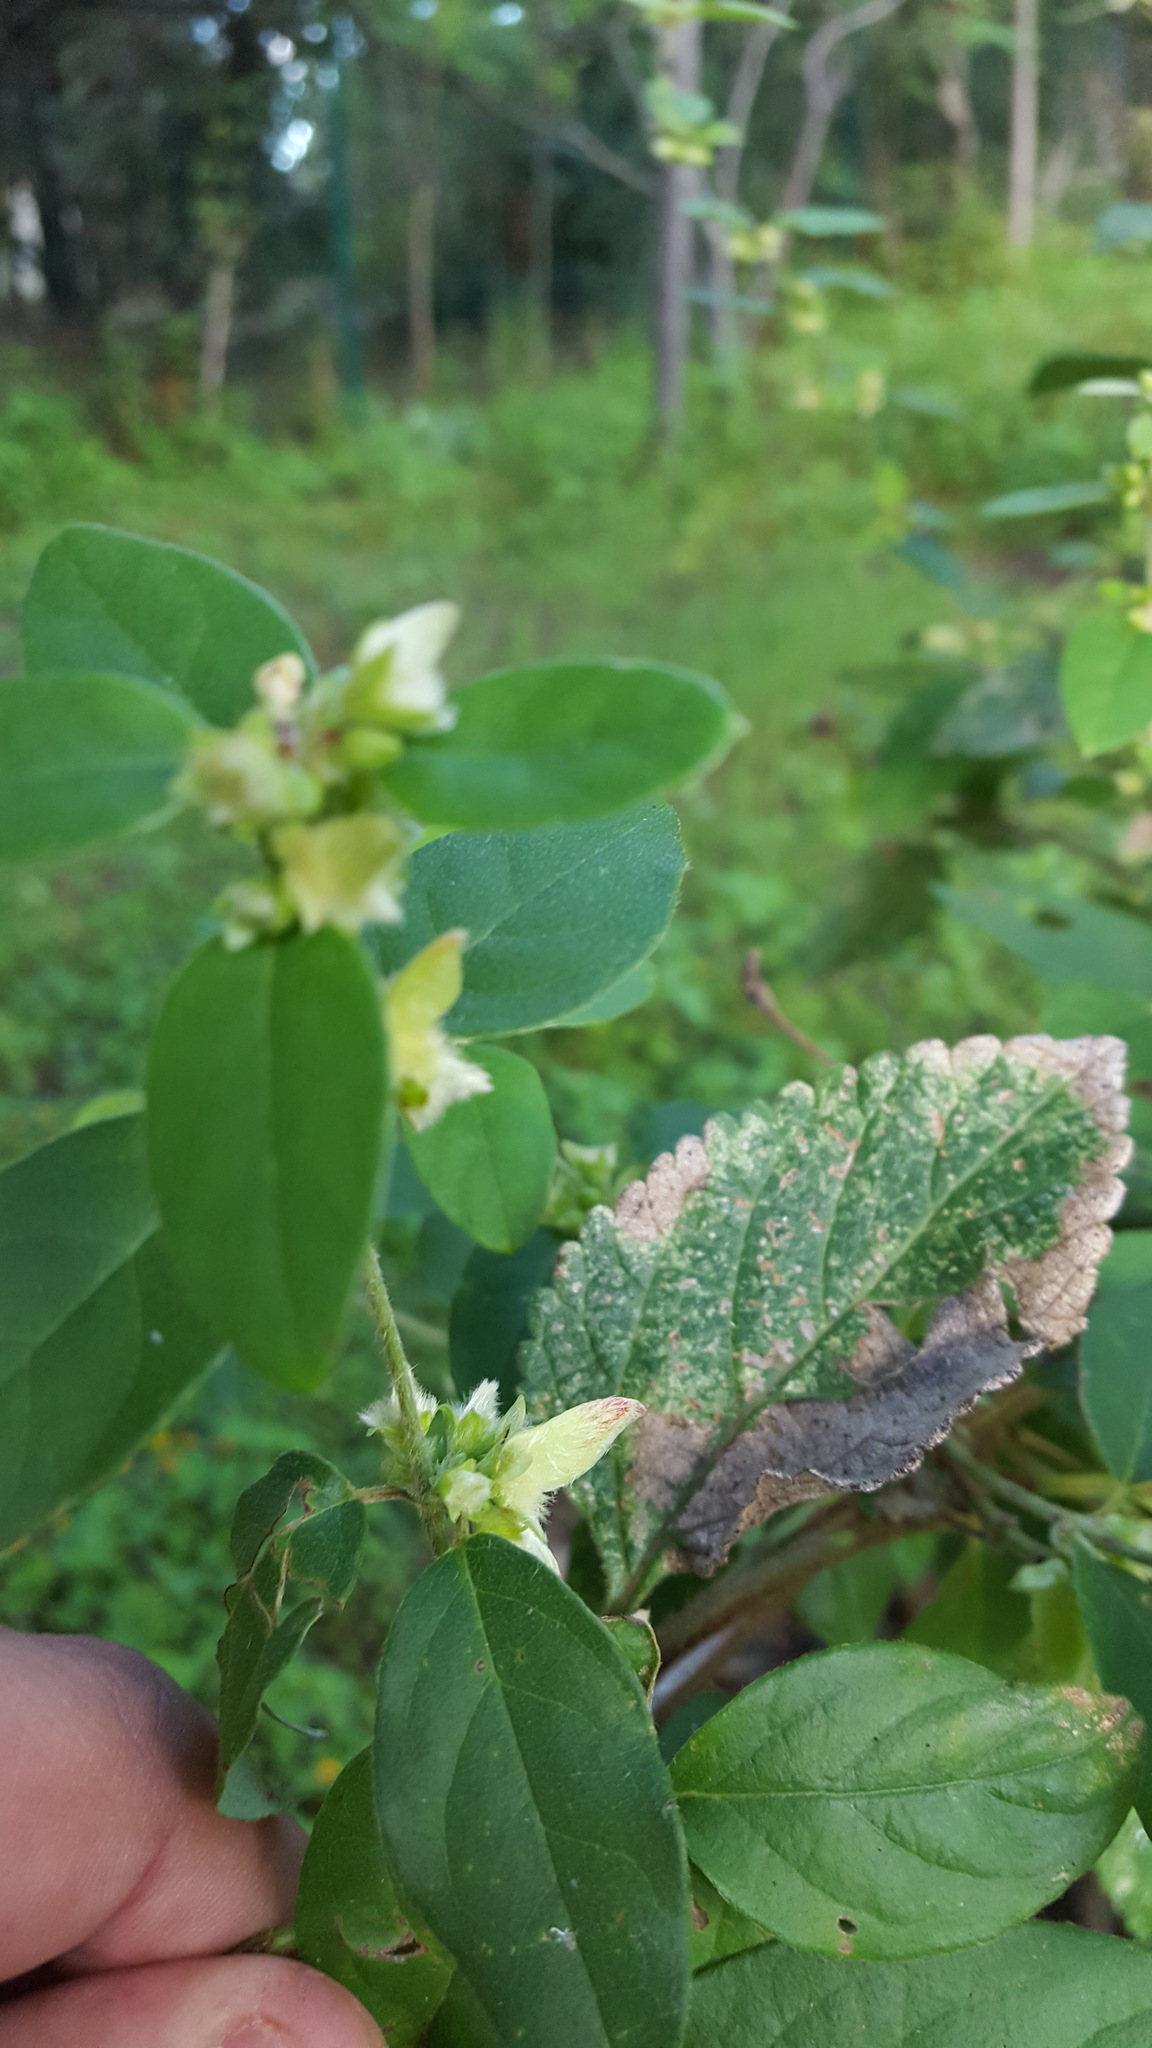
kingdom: Plantae
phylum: Tracheophyta
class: Magnoliopsida
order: Malpighiales
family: Malpighiaceae
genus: Gaudichaudia
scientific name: Gaudichaudia albida
